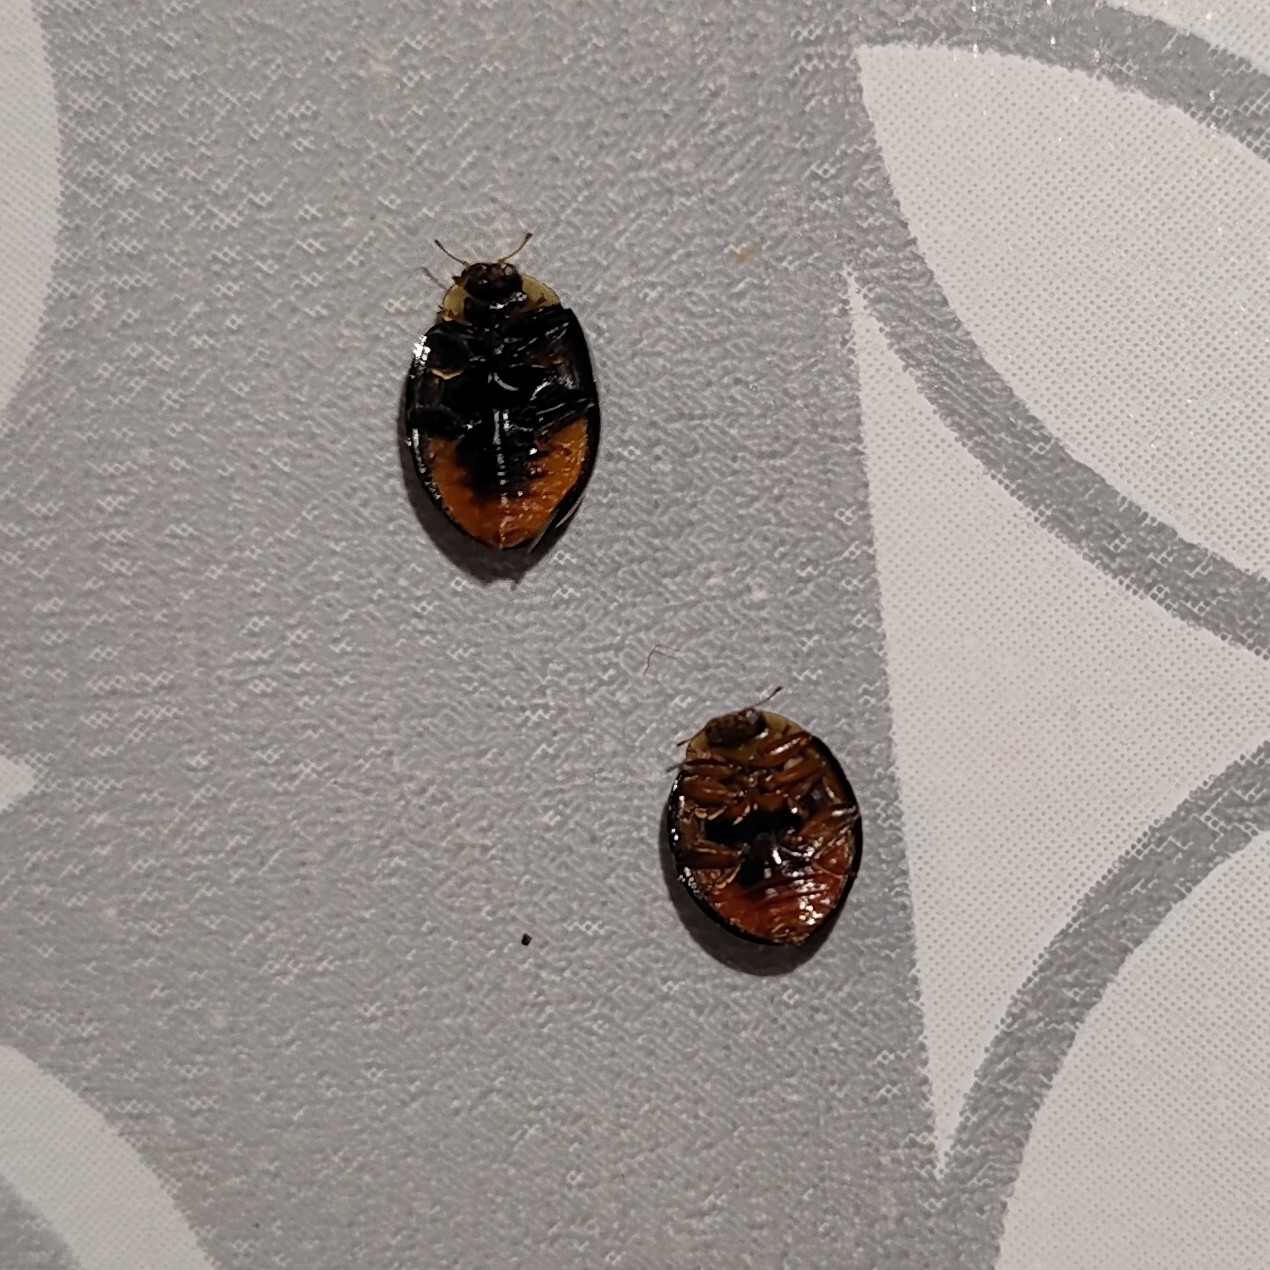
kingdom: Animalia
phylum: Arthropoda
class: Insecta
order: Coleoptera
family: Coccinellidae
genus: Harmonia
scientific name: Harmonia axyridis
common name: Harlequin ladybird
